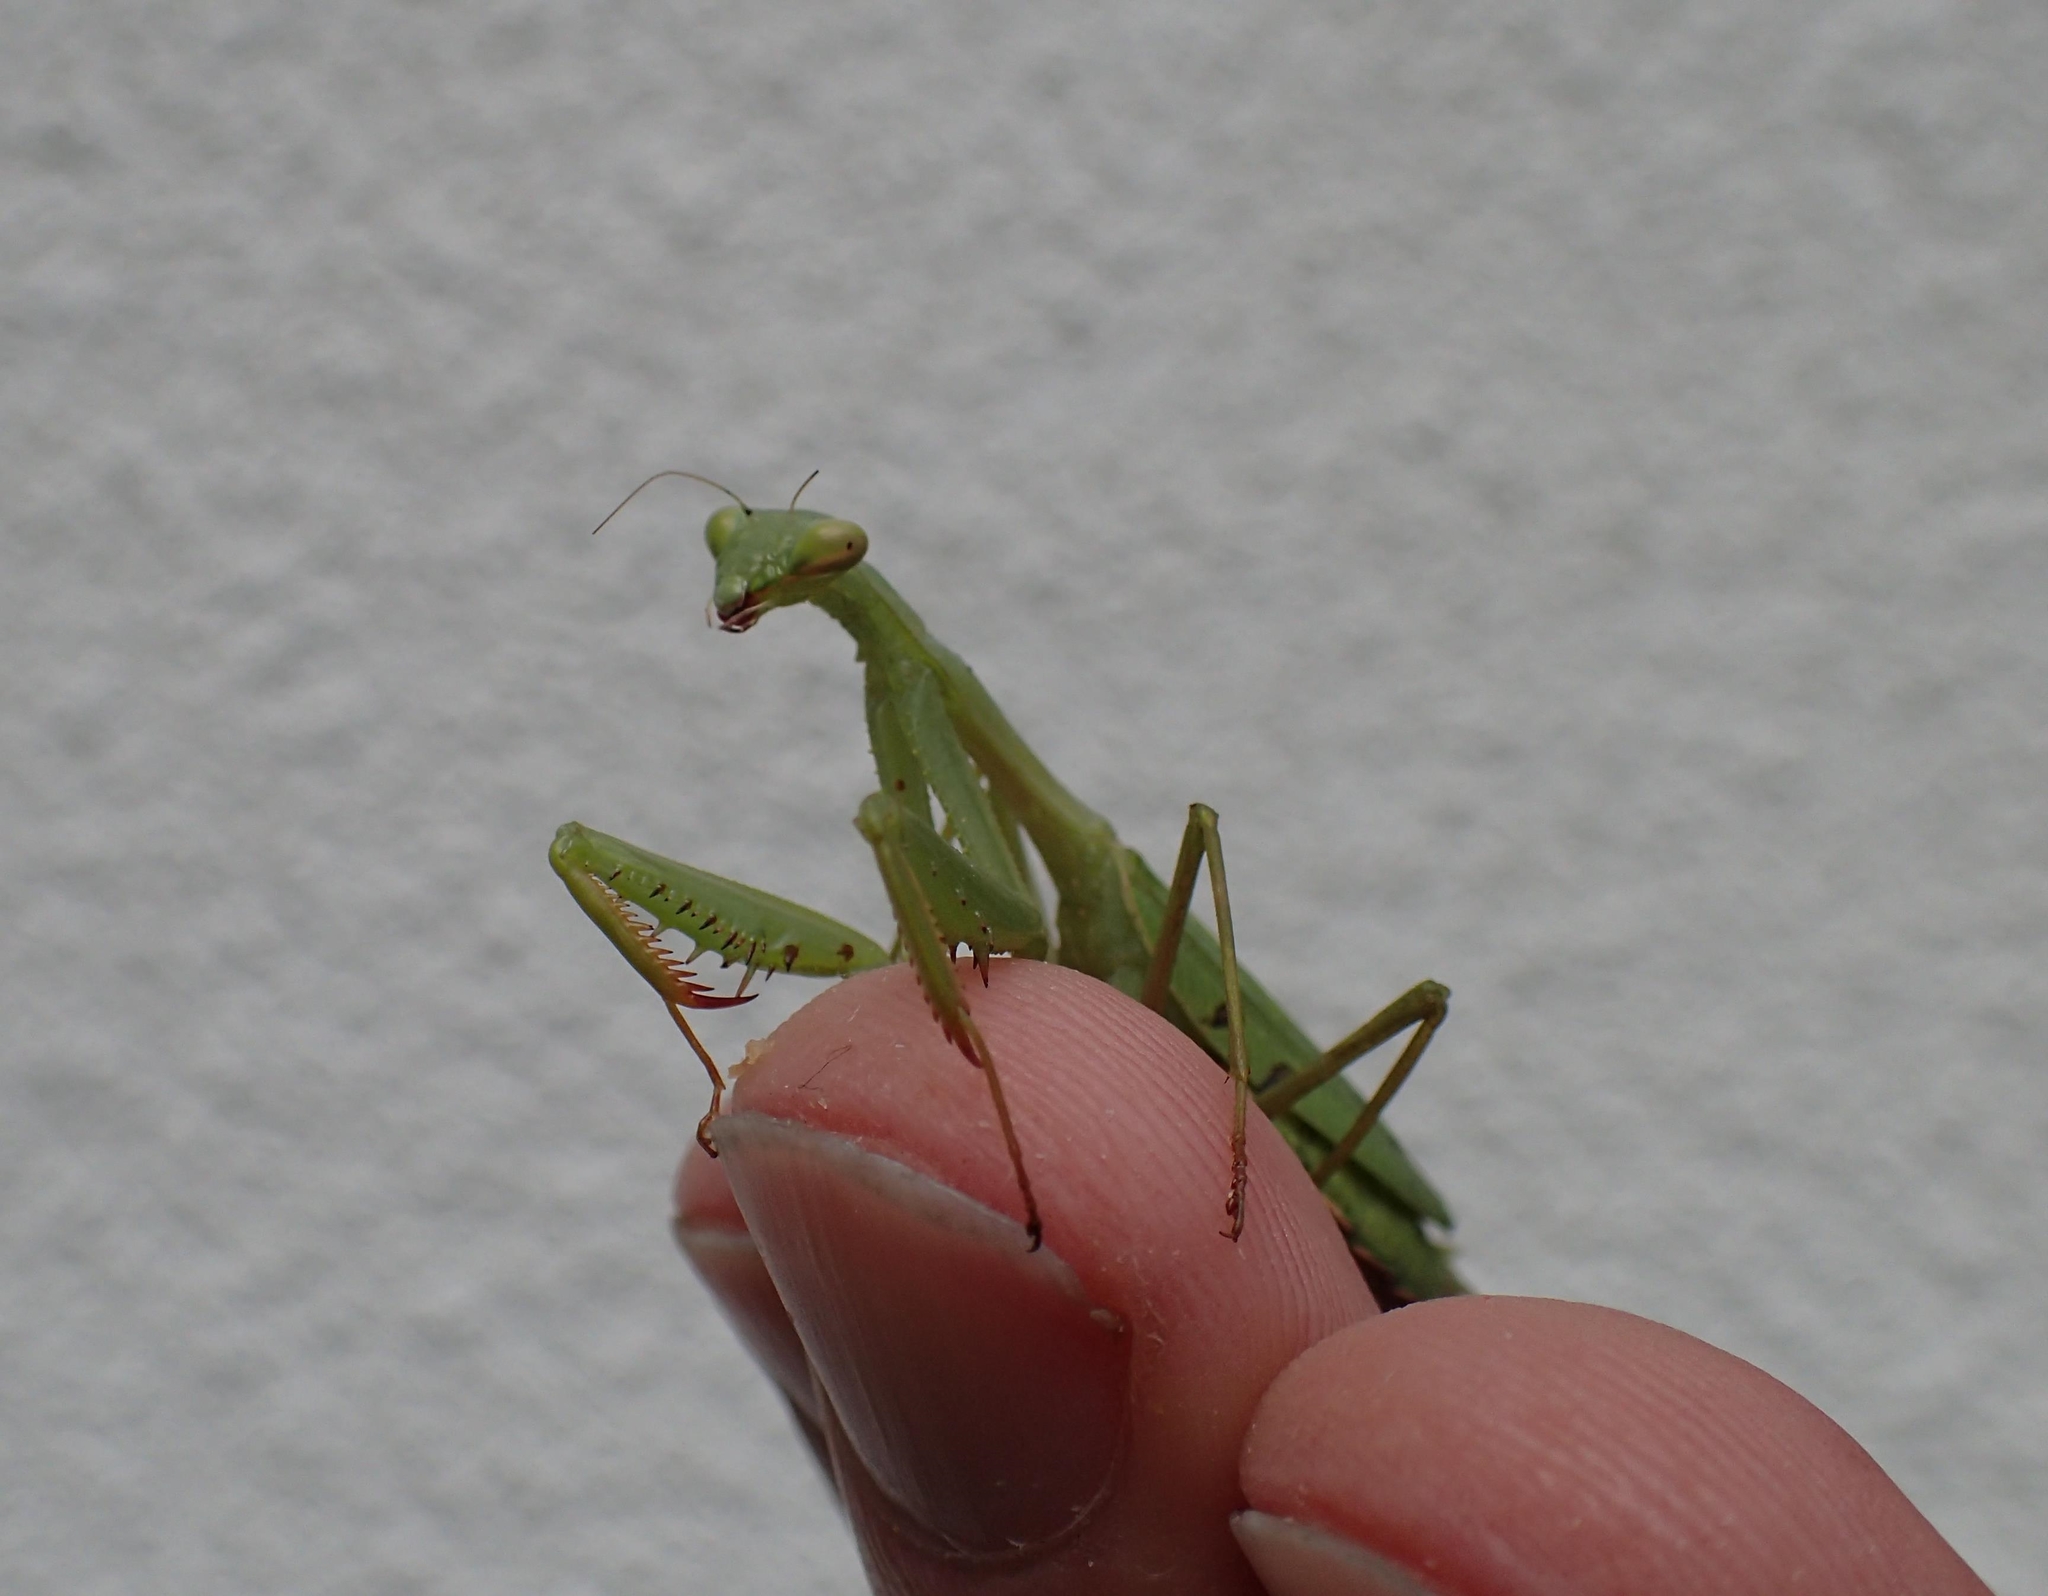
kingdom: Animalia
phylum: Arthropoda
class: Insecta
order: Mantodea
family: Miomantidae
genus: Miomantis
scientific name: Miomantis caffra
